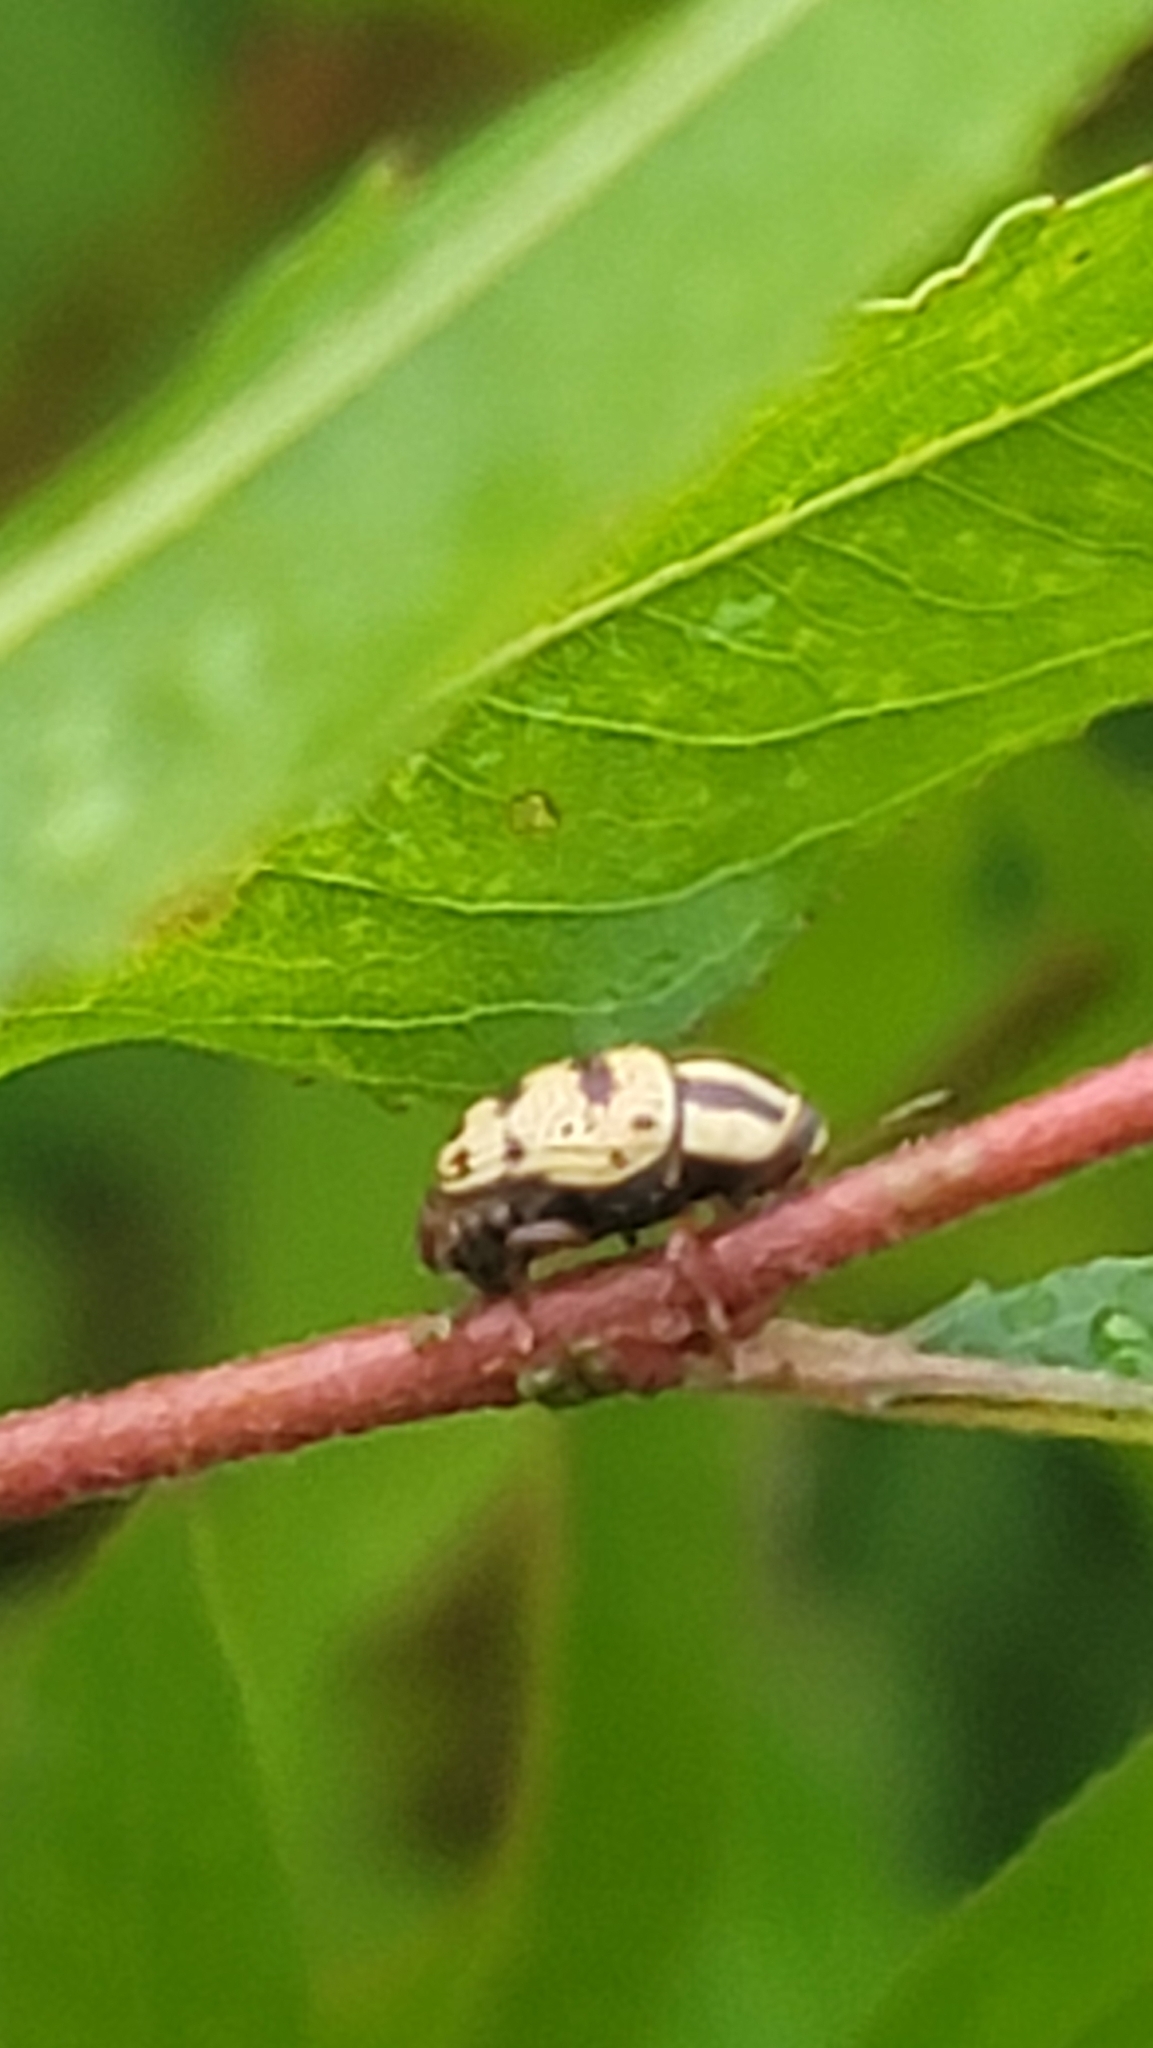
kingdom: Animalia
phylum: Arthropoda
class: Insecta
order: Coleoptera
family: Chrysomelidae
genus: Cryptocephalus
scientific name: Cryptocephalus mutabilis
